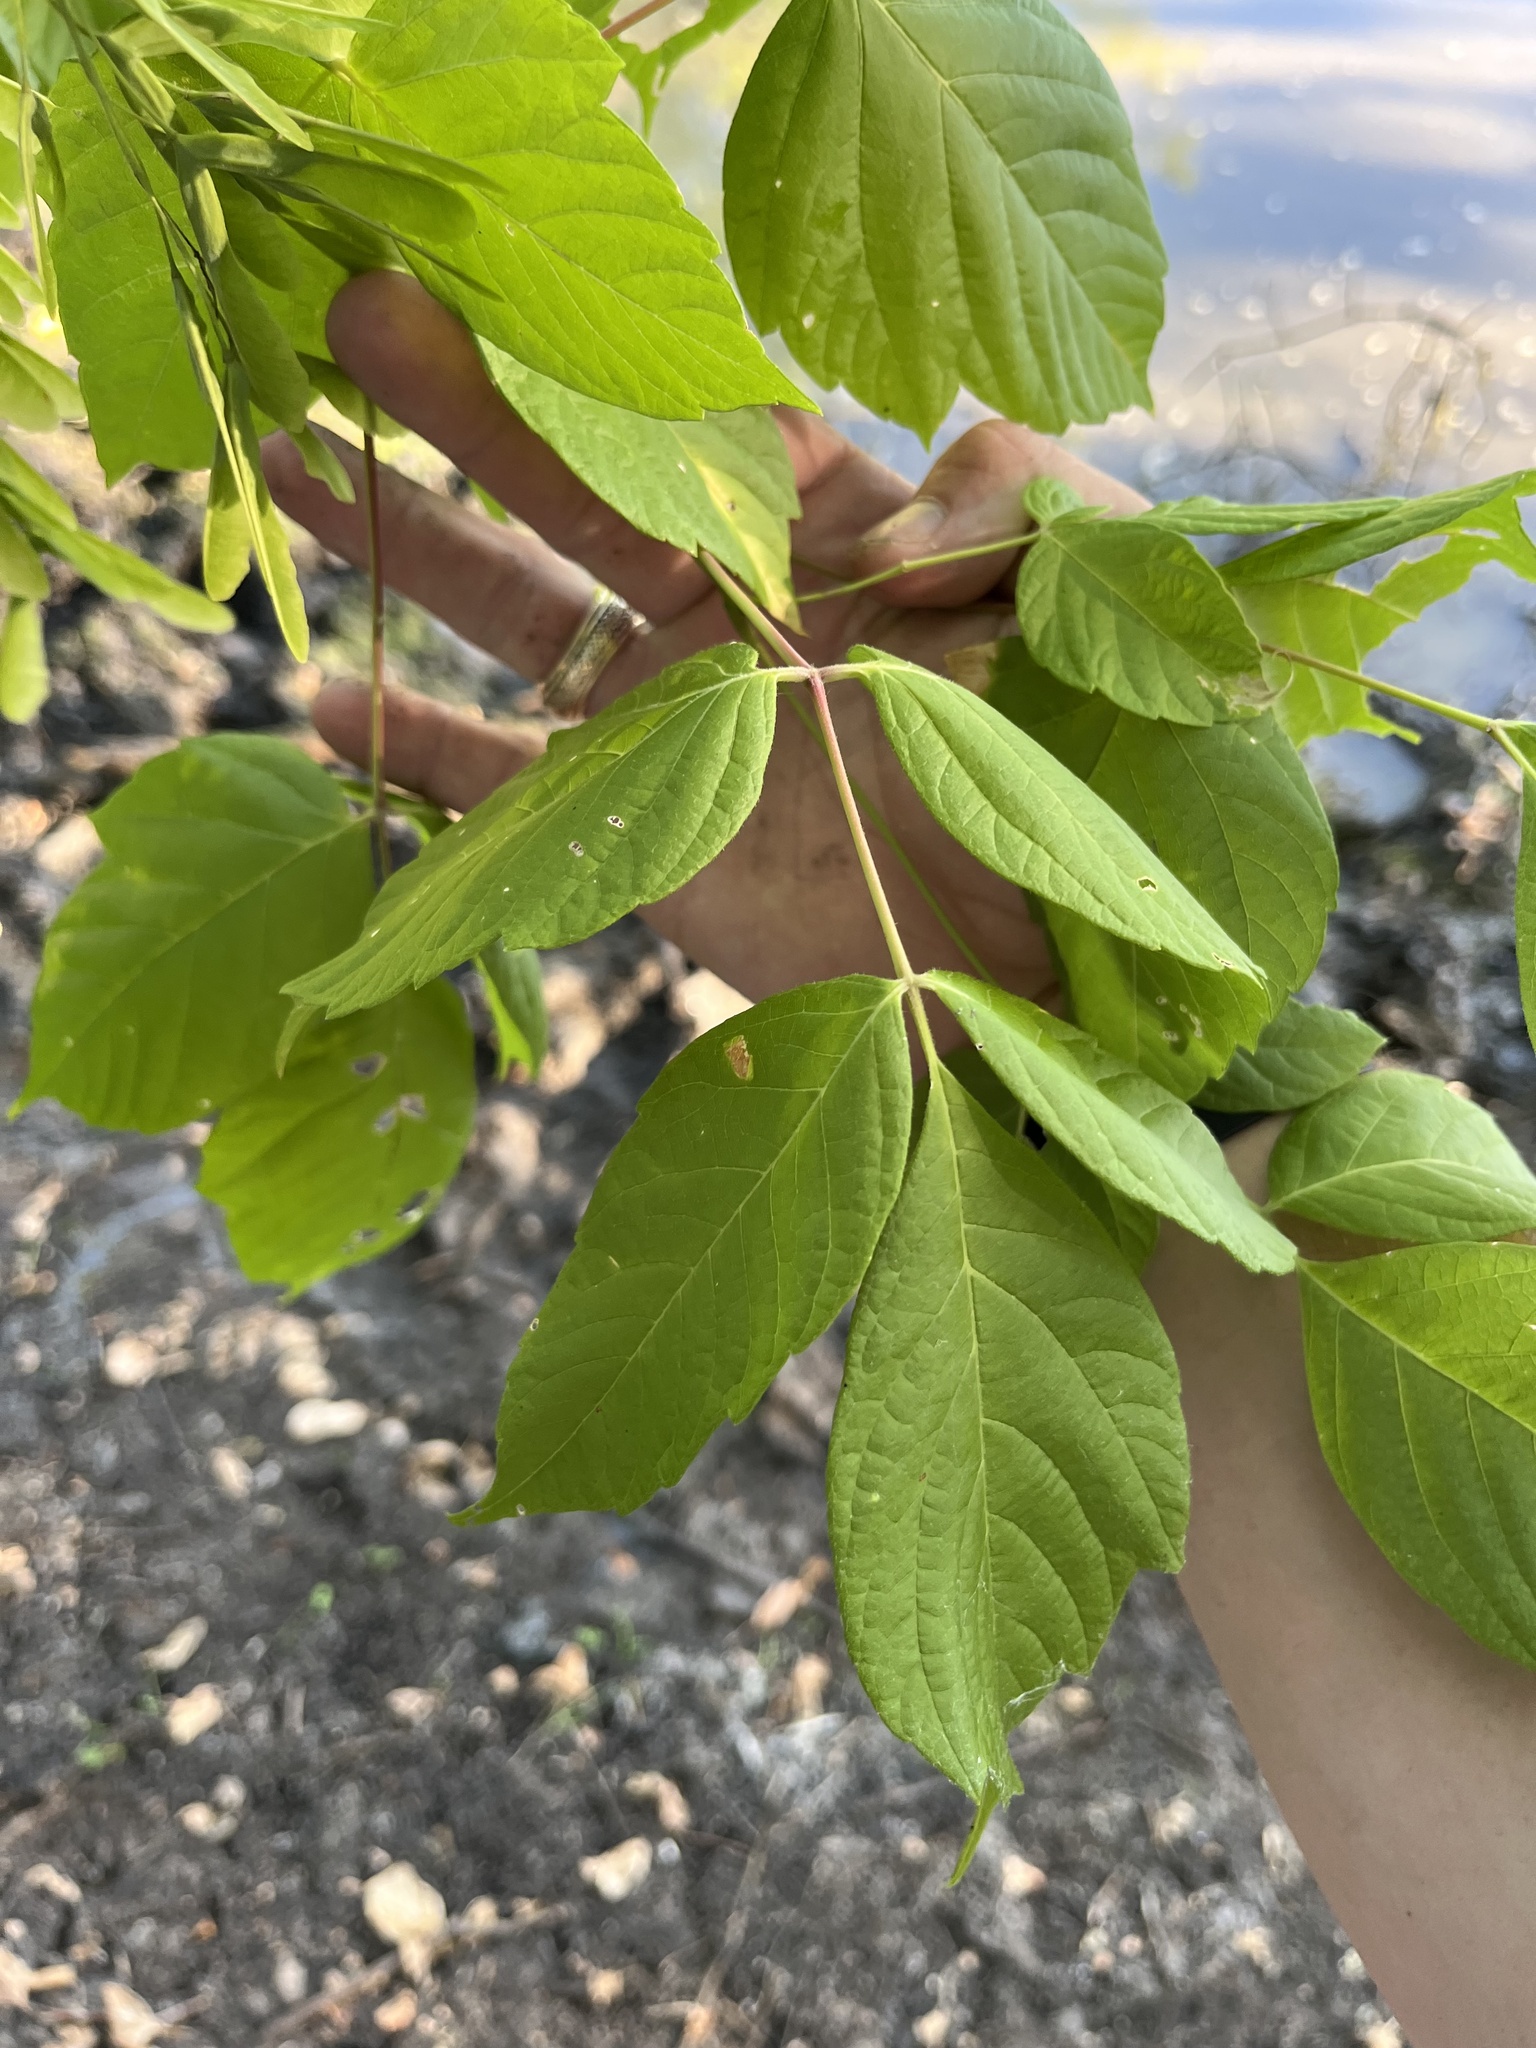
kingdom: Plantae
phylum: Tracheophyta
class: Magnoliopsida
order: Sapindales
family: Sapindaceae
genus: Acer
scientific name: Acer negundo
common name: Ashleaf maple
